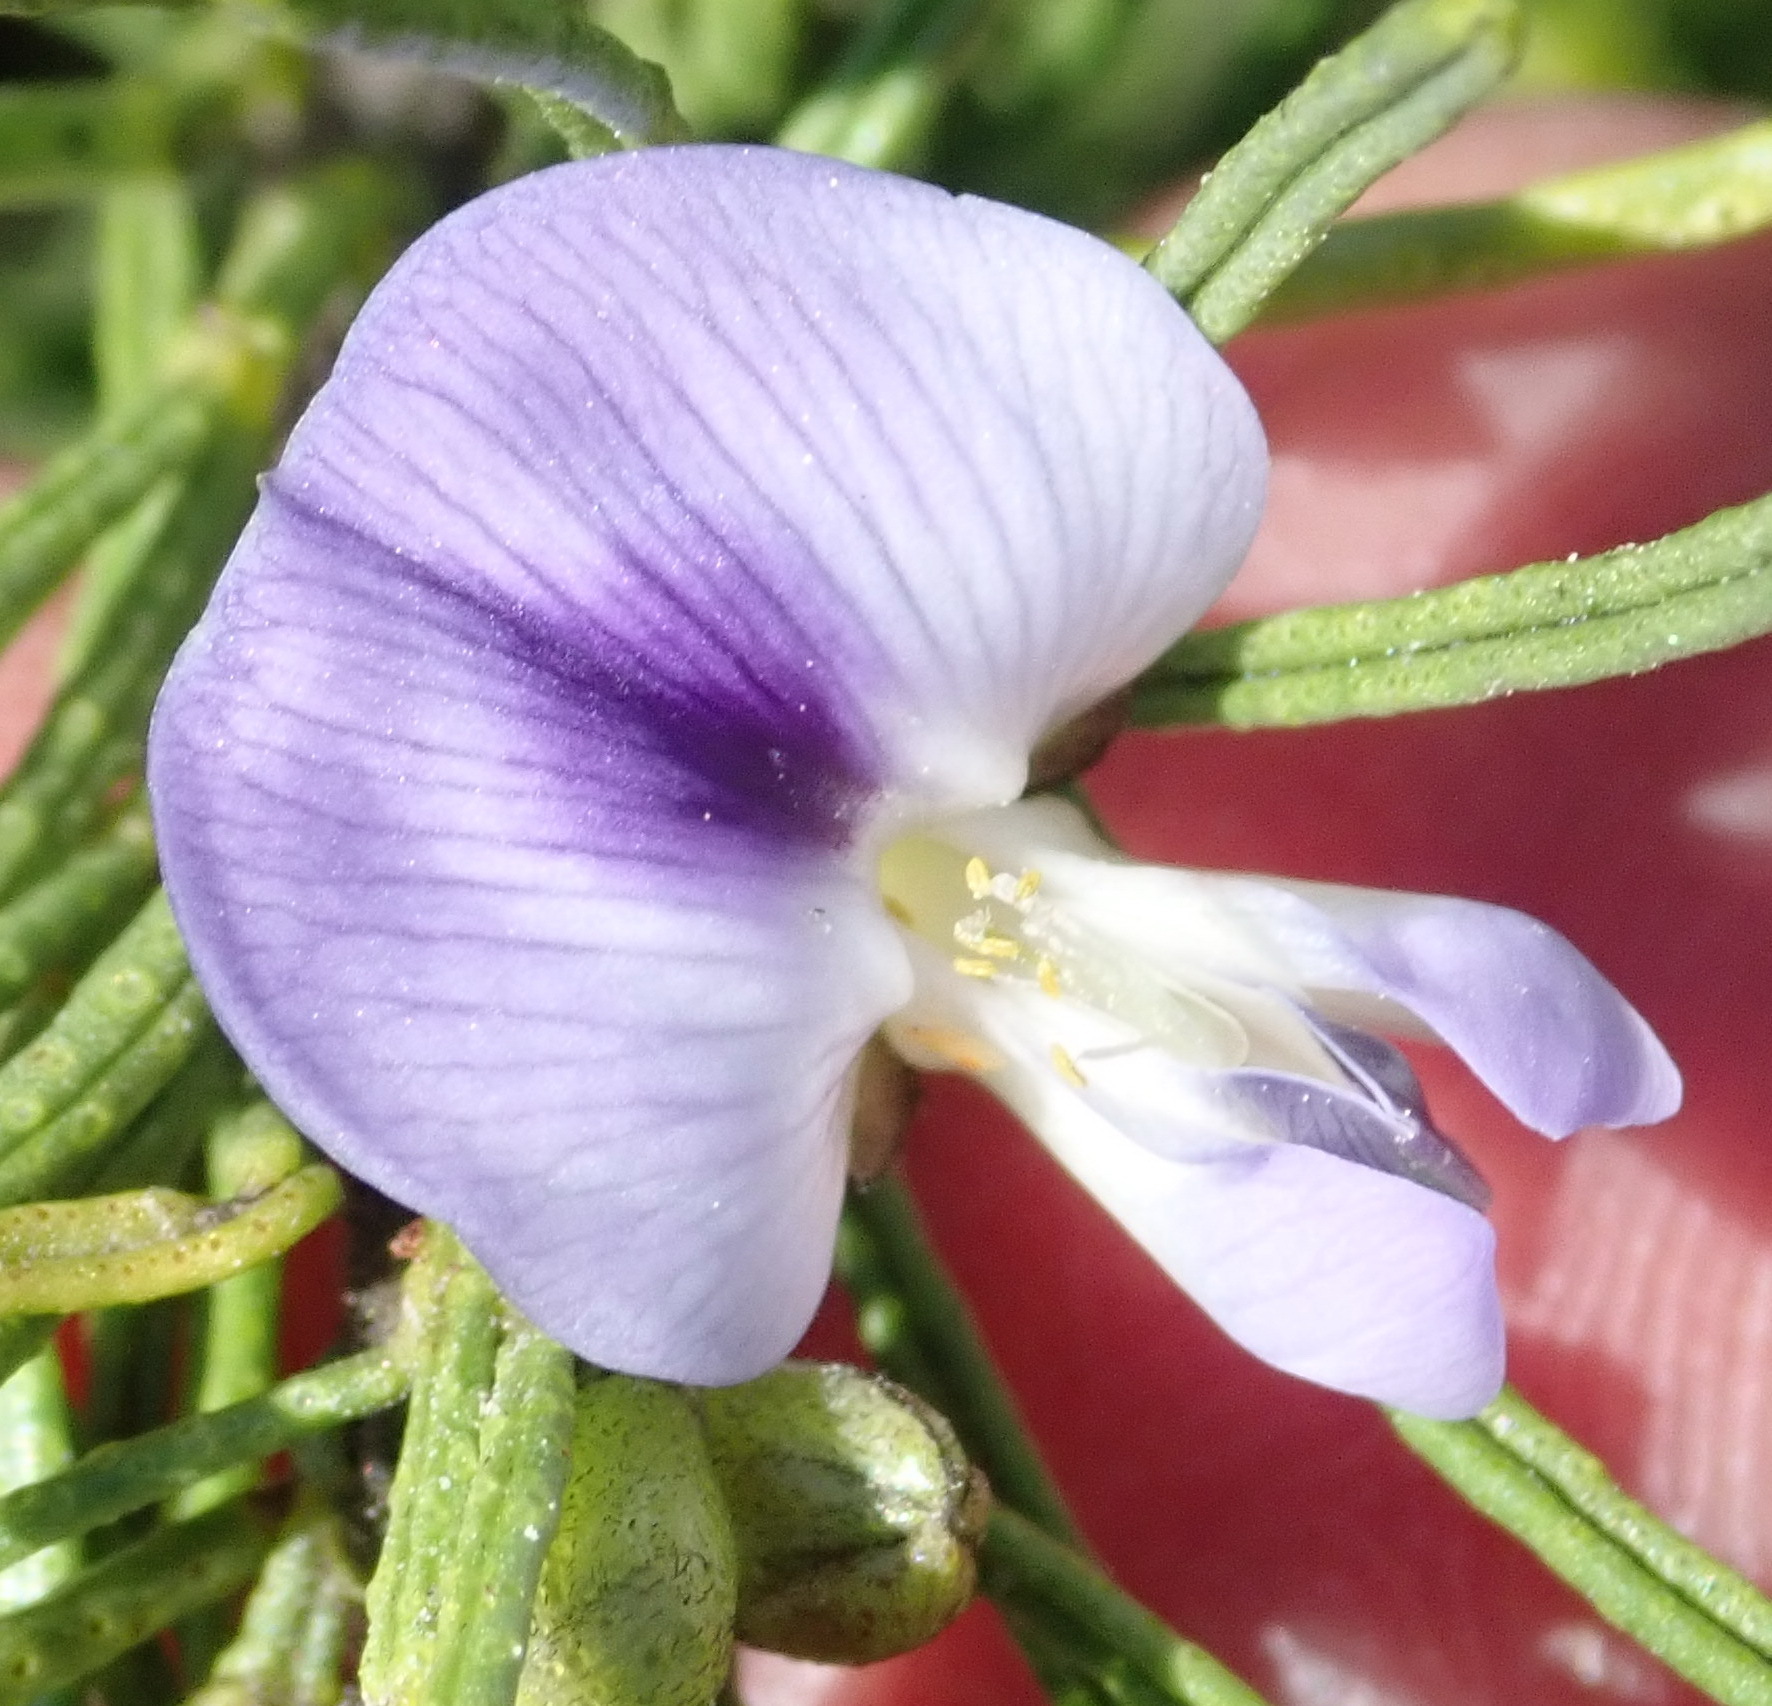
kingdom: Plantae
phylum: Tracheophyta
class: Magnoliopsida
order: Fabales
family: Fabaceae
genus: Psoralea
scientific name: Psoralea vanberkelae
